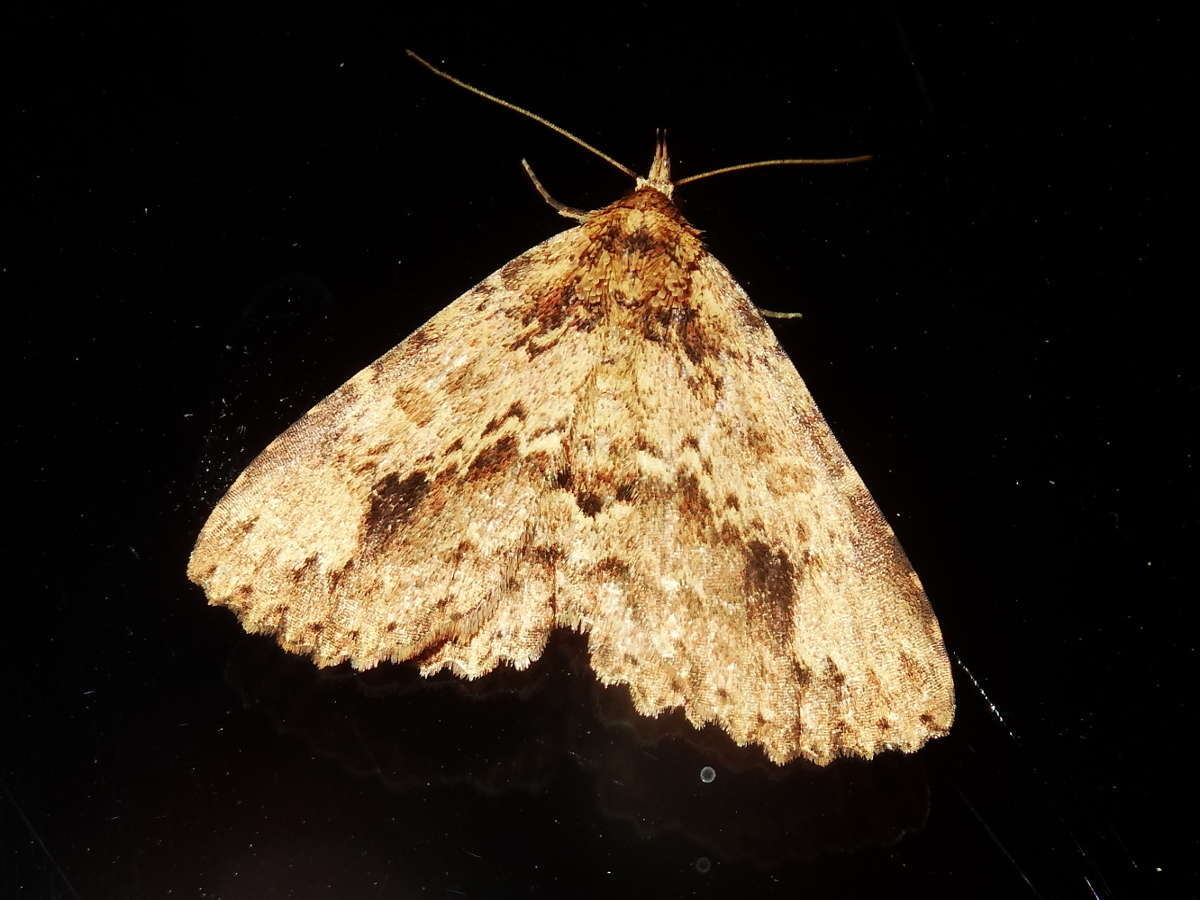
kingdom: Animalia
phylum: Arthropoda
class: Insecta
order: Lepidoptera
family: Erebidae
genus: Artigisa
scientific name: Artigisa melanephele
